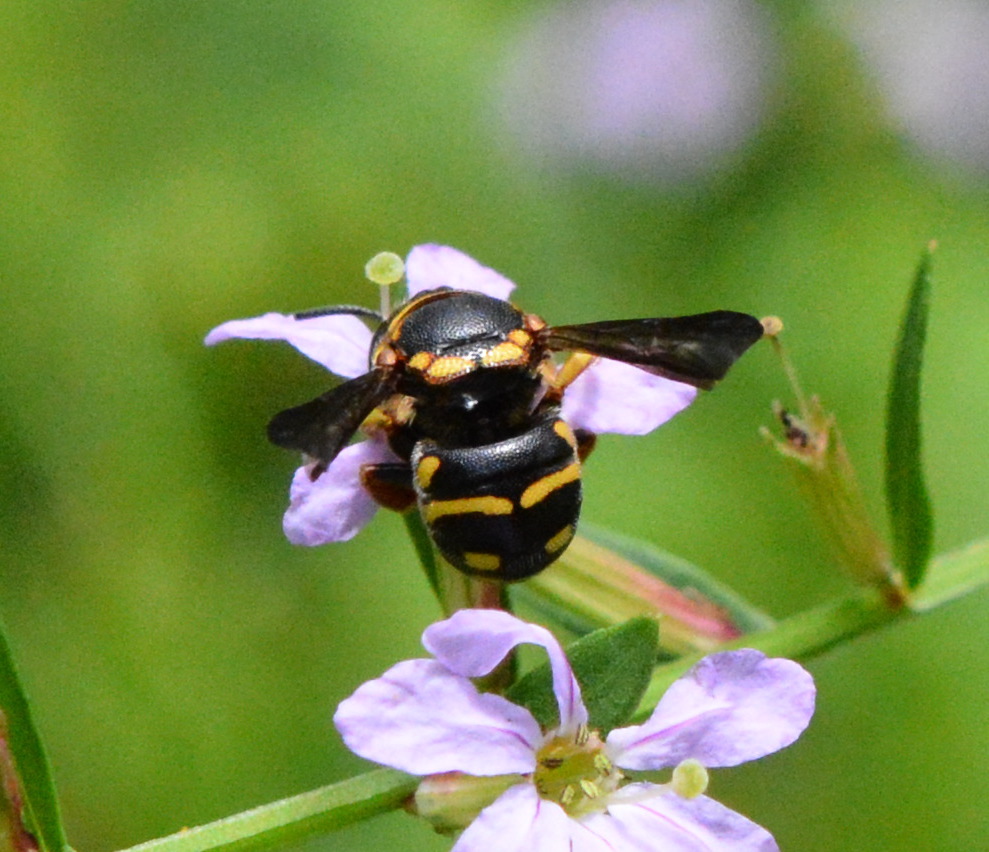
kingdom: Animalia
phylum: Arthropoda
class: Insecta
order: Hymenoptera
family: Megachilidae
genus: Anthidiellum
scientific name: Anthidiellum notatum
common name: Northern rotund-resin bee
